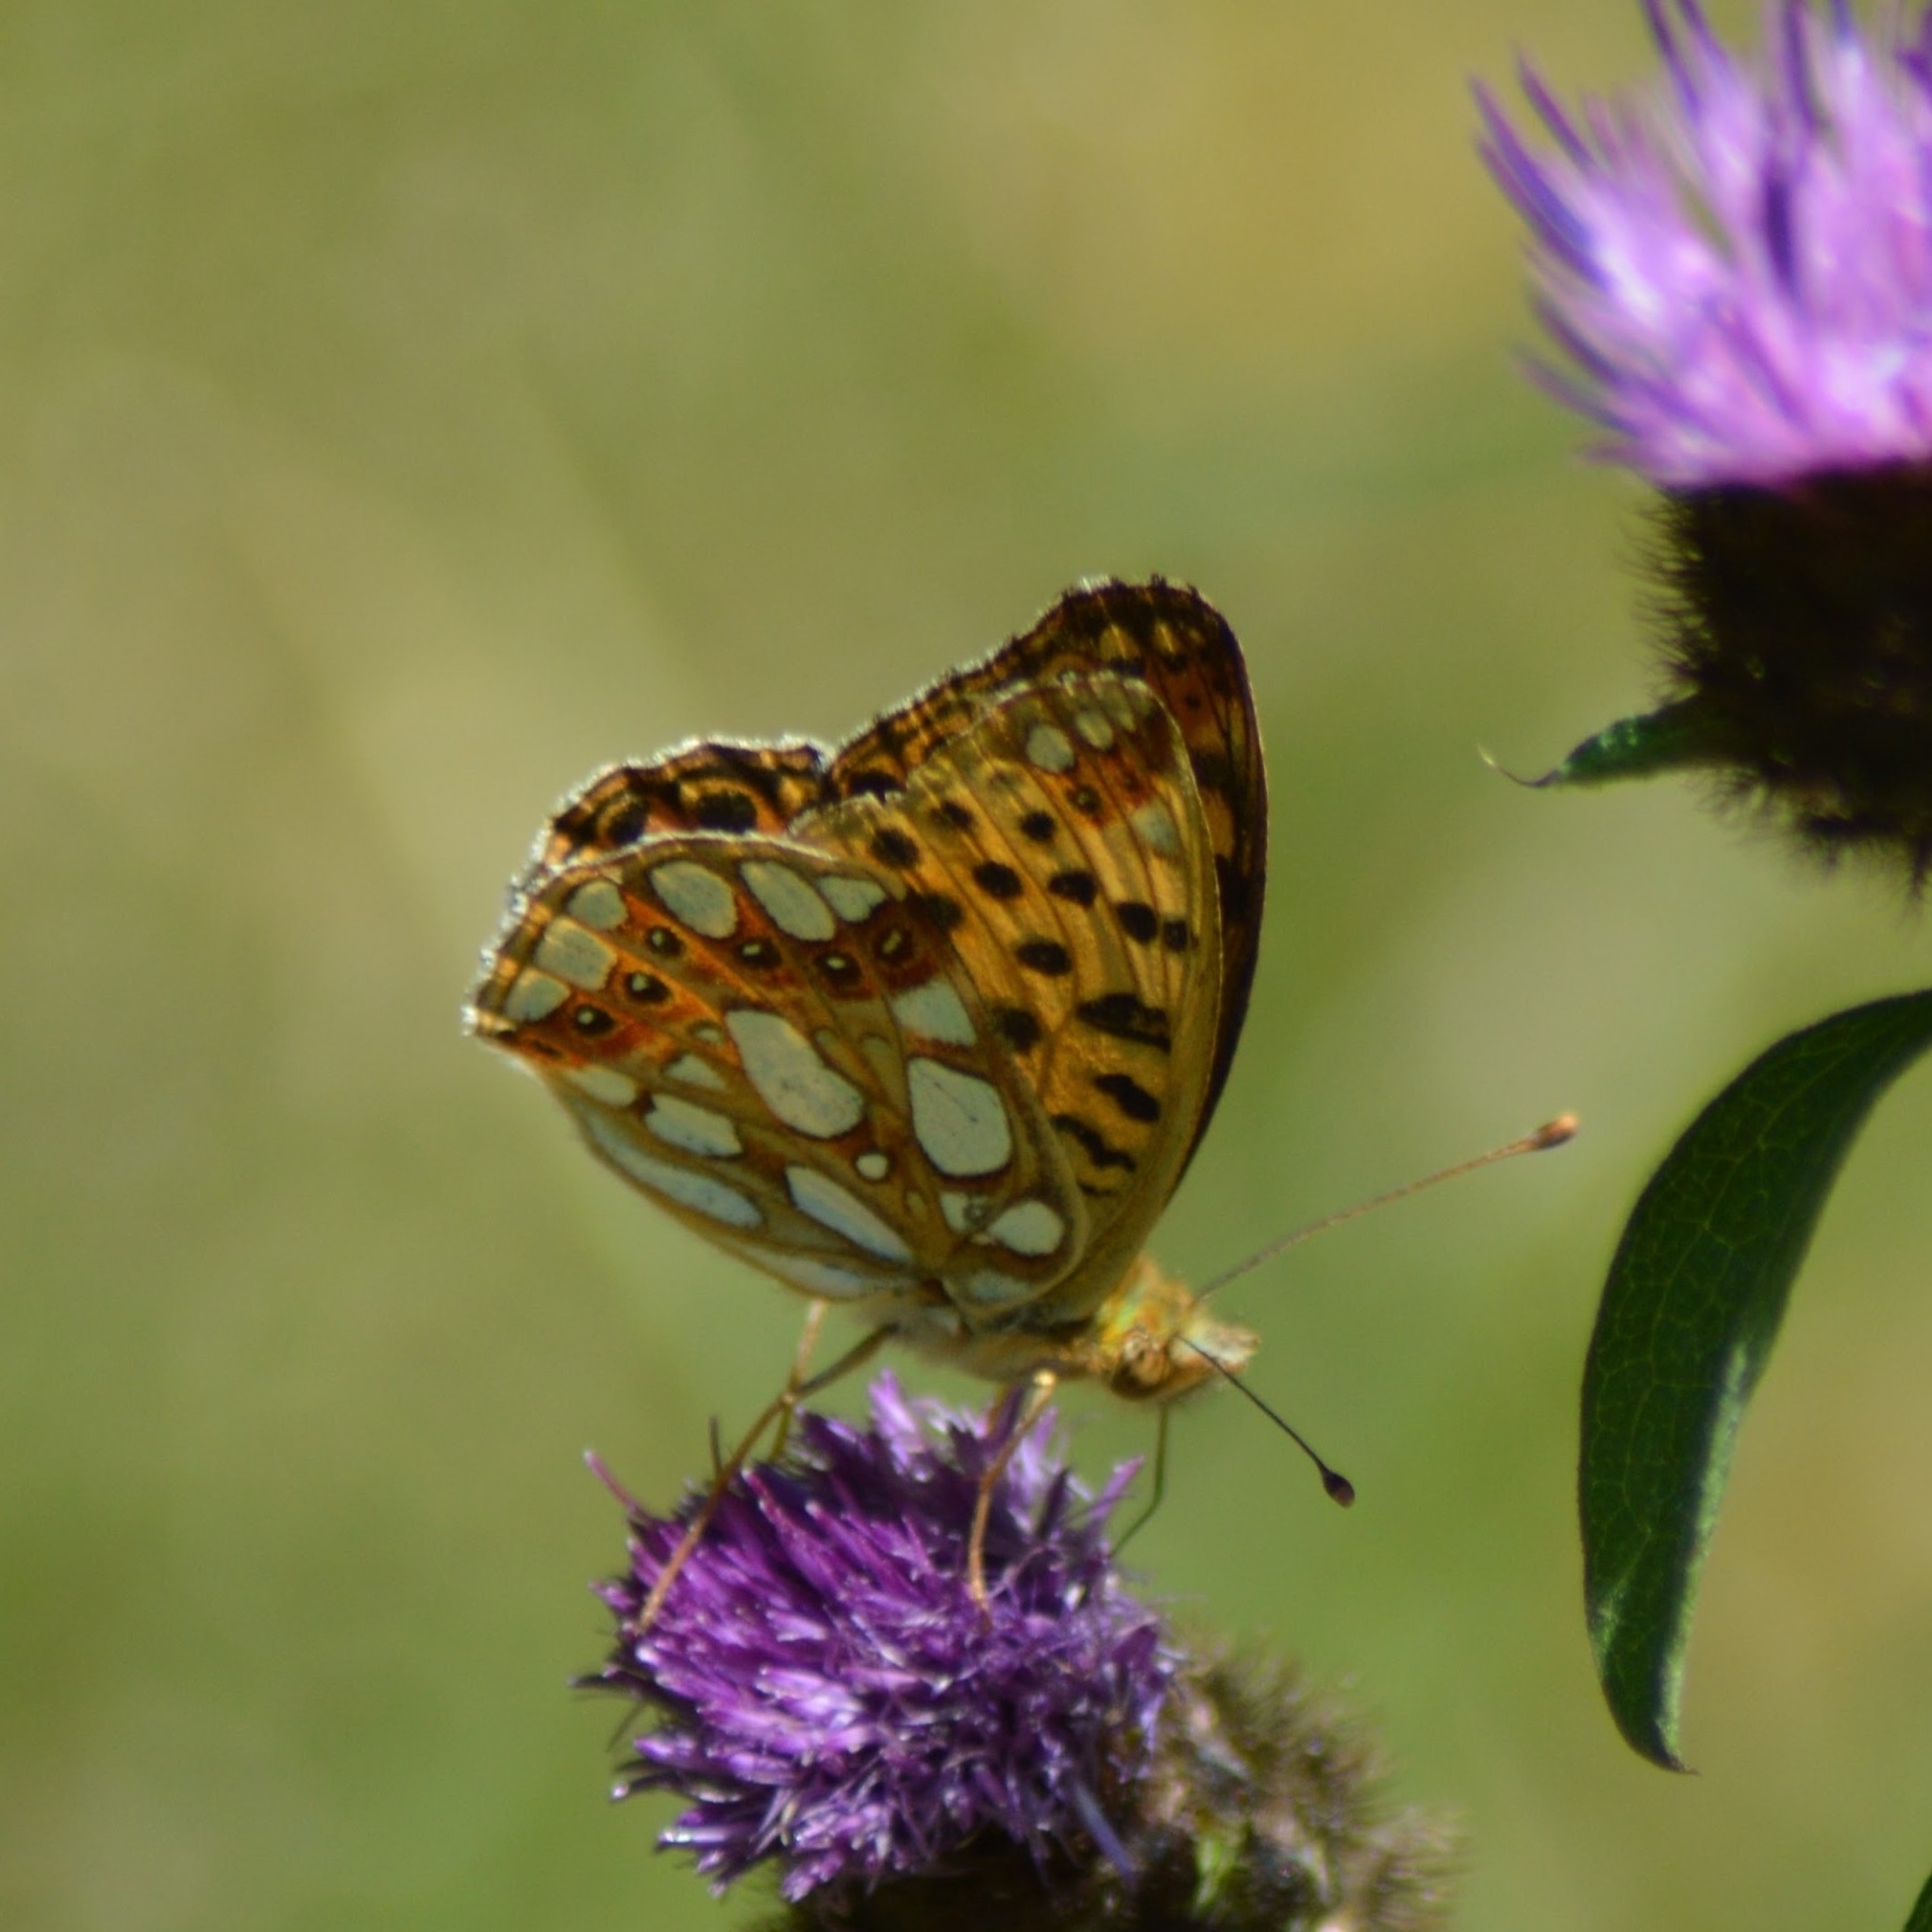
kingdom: Animalia
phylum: Arthropoda
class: Insecta
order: Lepidoptera
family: Nymphalidae
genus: Issoria
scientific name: Issoria lathonia
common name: Queen of spain fritillary
